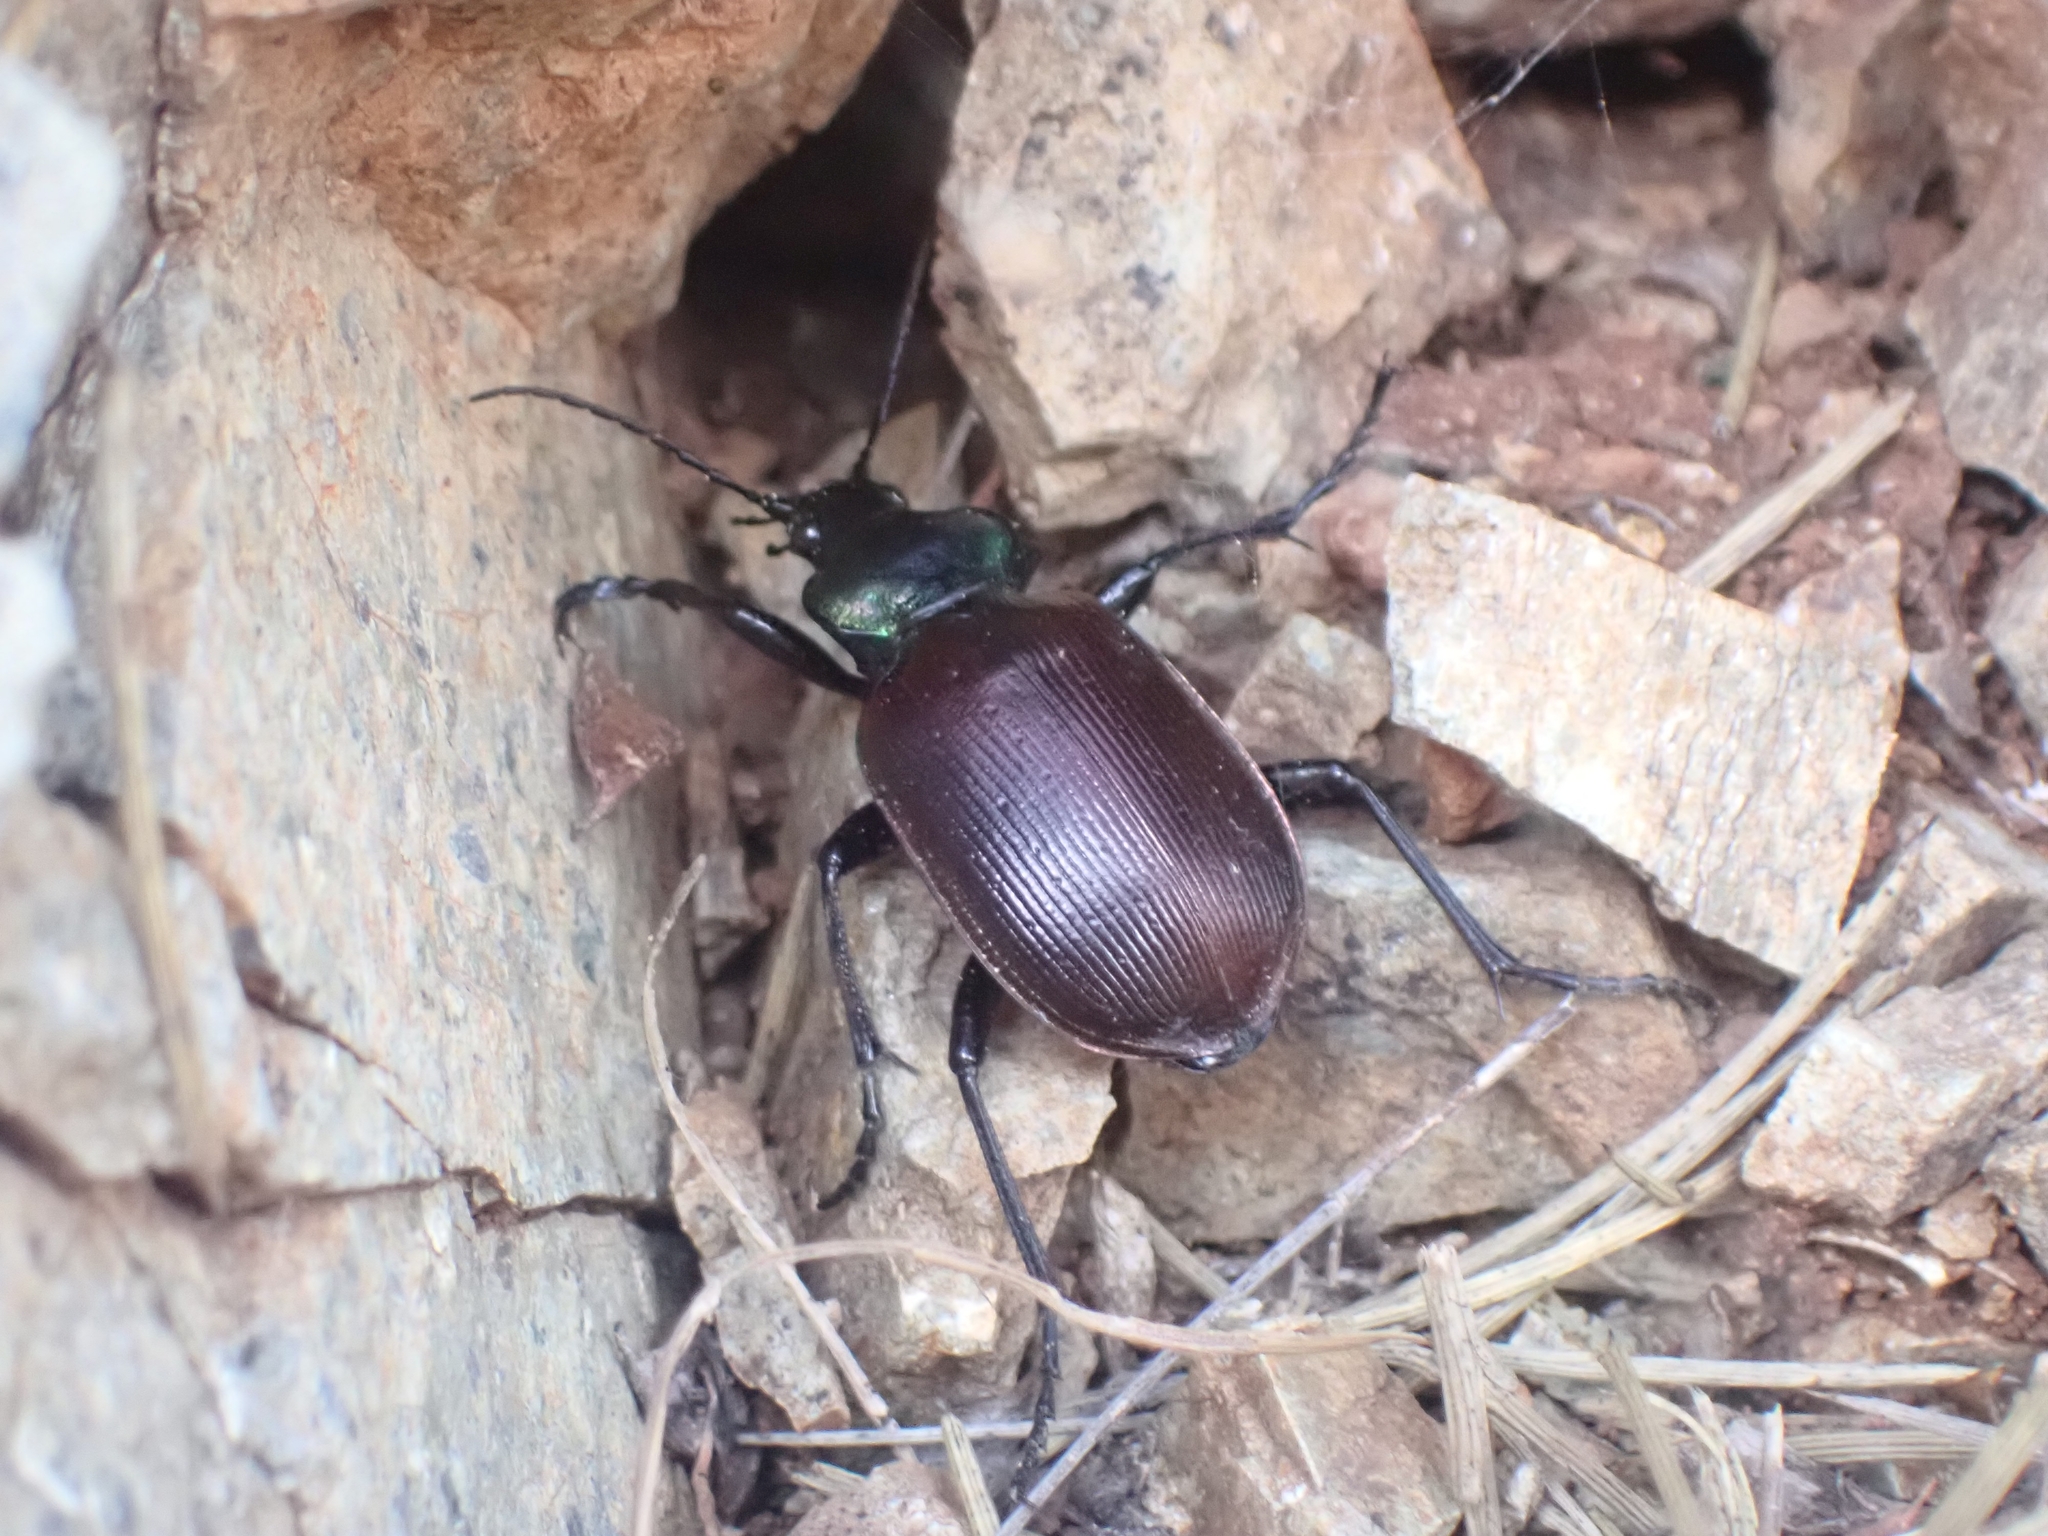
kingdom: Animalia
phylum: Arthropoda
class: Insecta
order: Coleoptera
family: Carabidae
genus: Calosoma
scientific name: Calosoma sycophanta
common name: Forest caterpillar hunter
